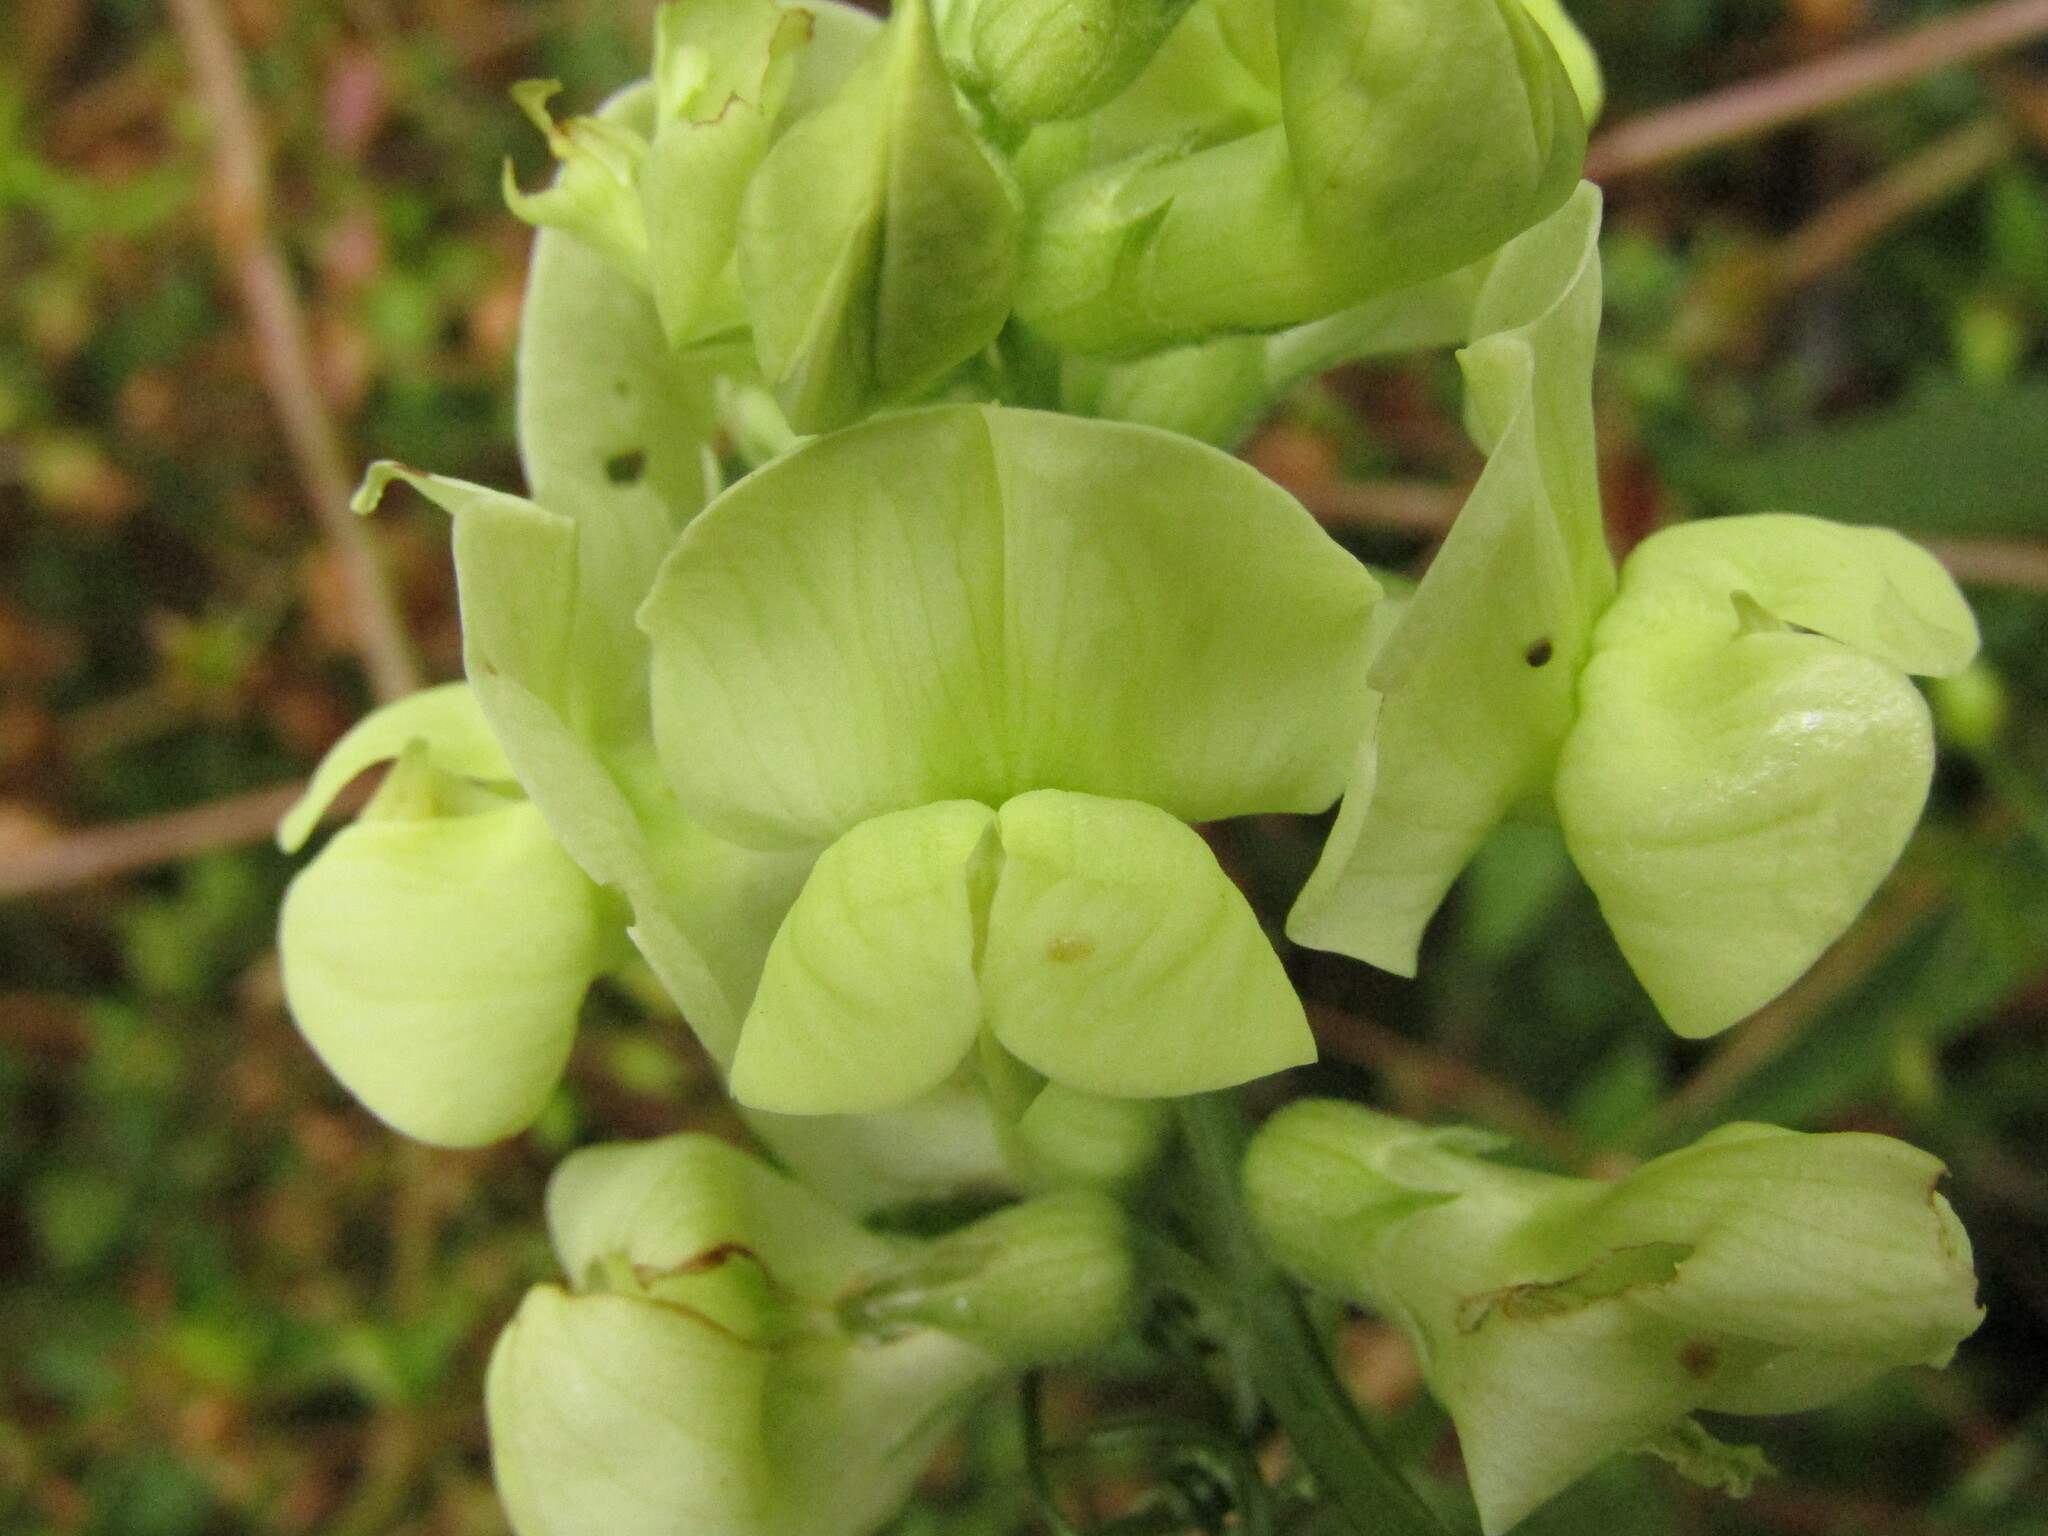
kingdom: Plantae
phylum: Tracheophyta
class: Magnoliopsida
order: Fabales
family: Fabaceae
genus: Lathyrus
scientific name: Lathyrus cabrerianus
